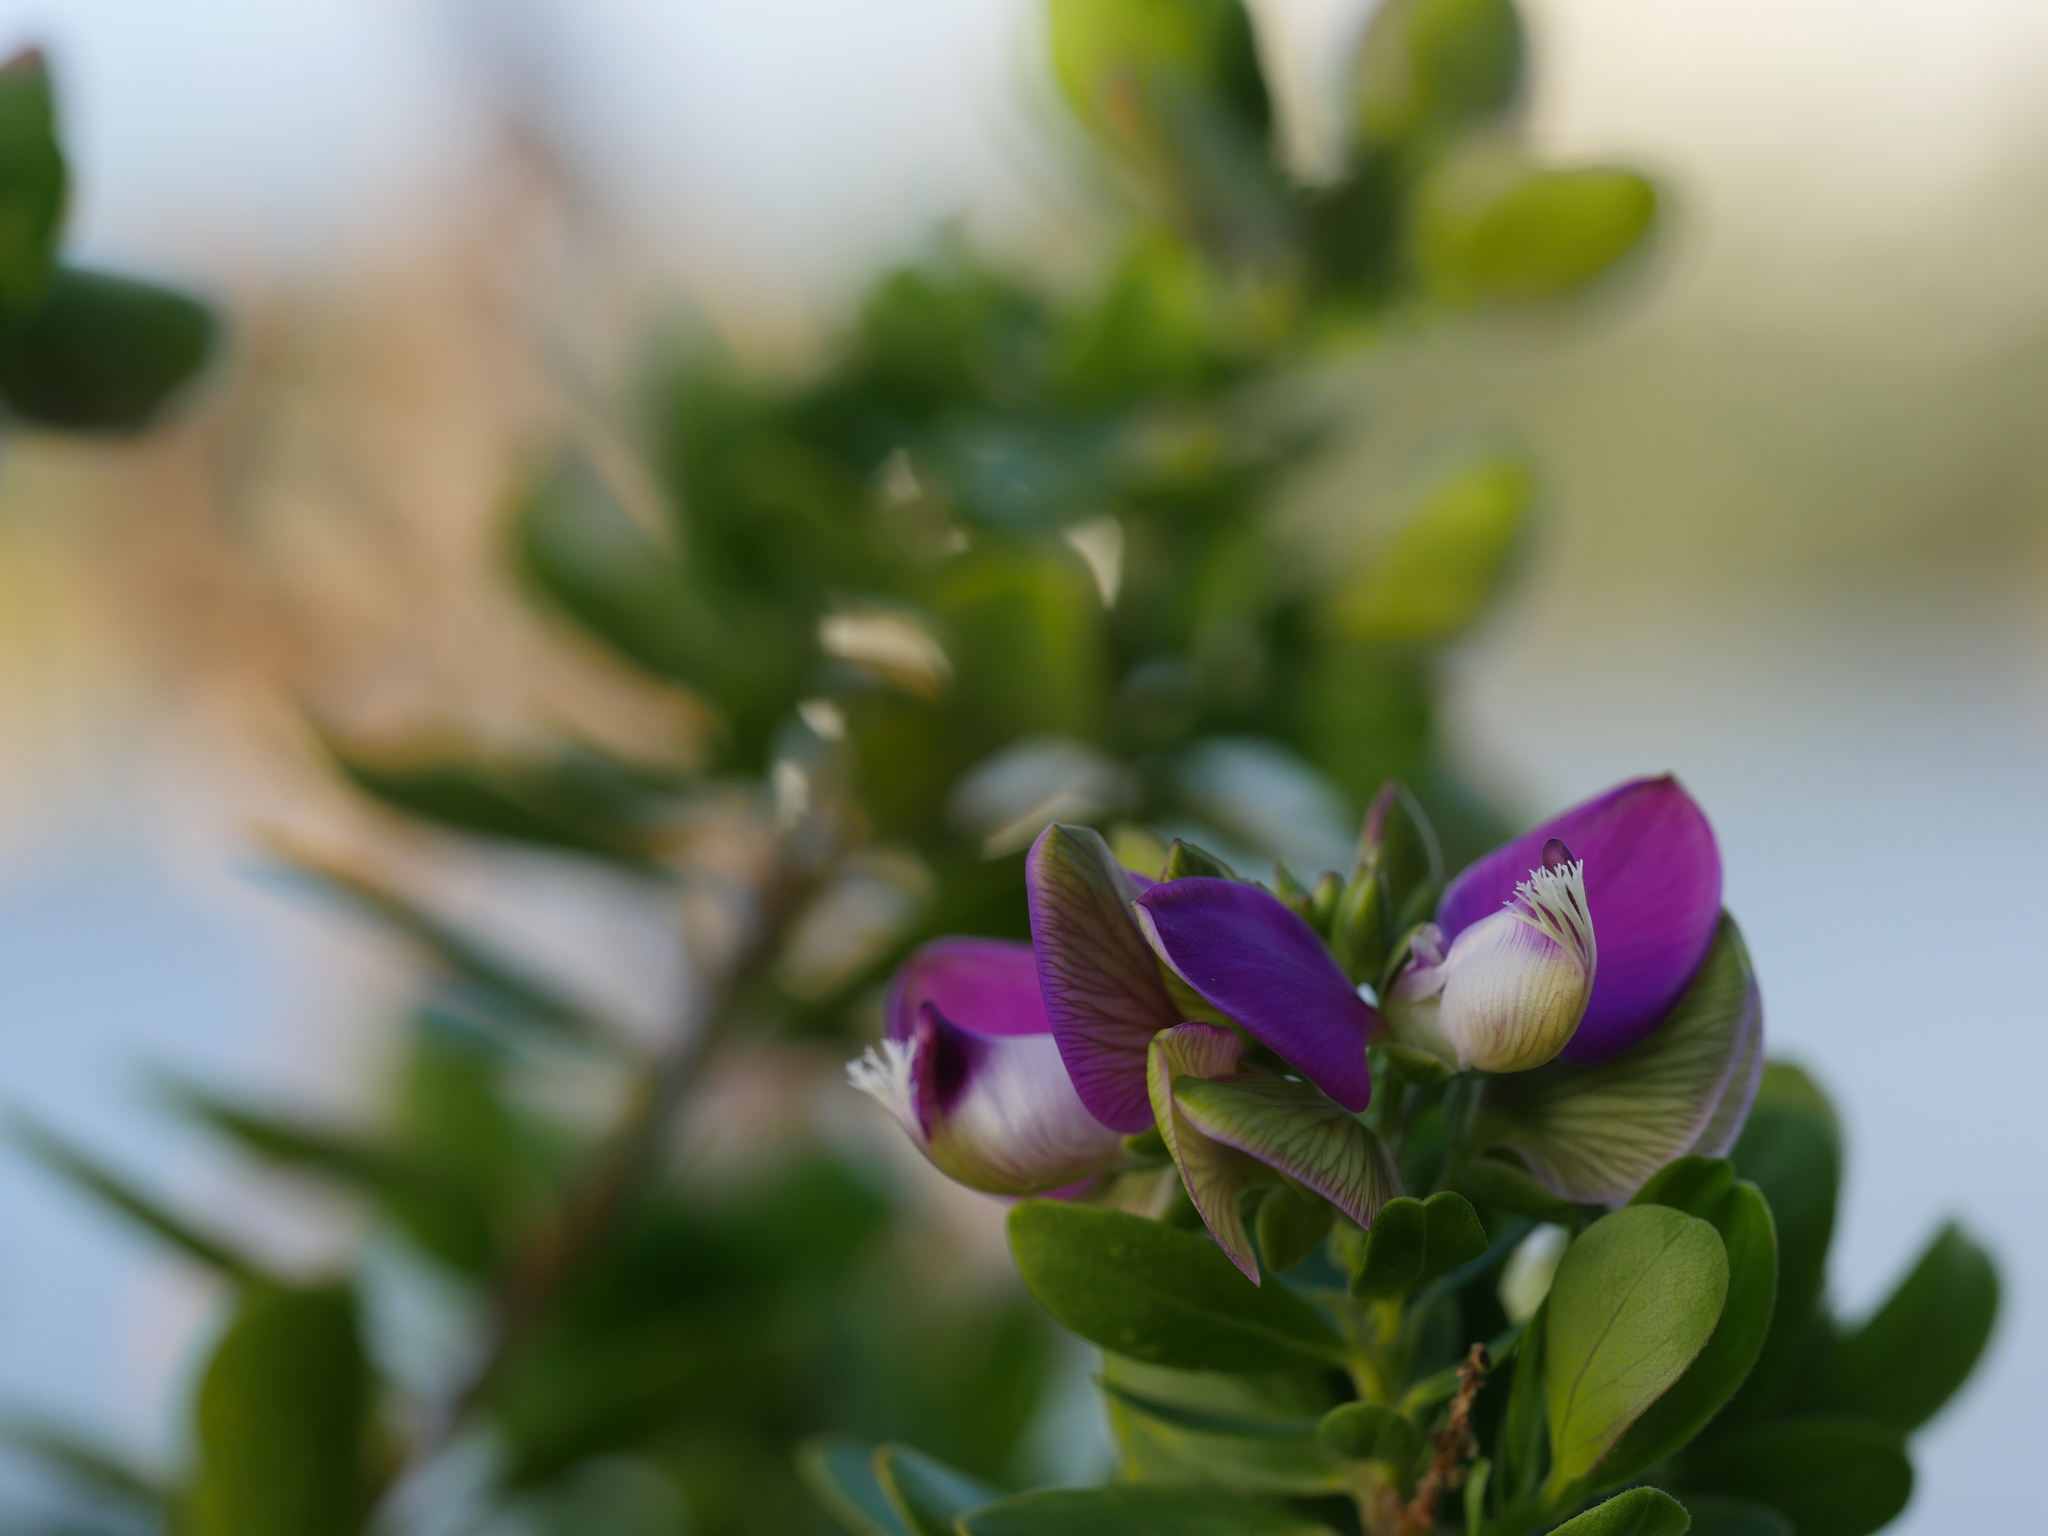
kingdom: Plantae
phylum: Tracheophyta
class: Magnoliopsida
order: Fabales
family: Polygalaceae
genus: Polygala
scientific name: Polygala myrtifolia
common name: Myrtle-leaf milkwort
